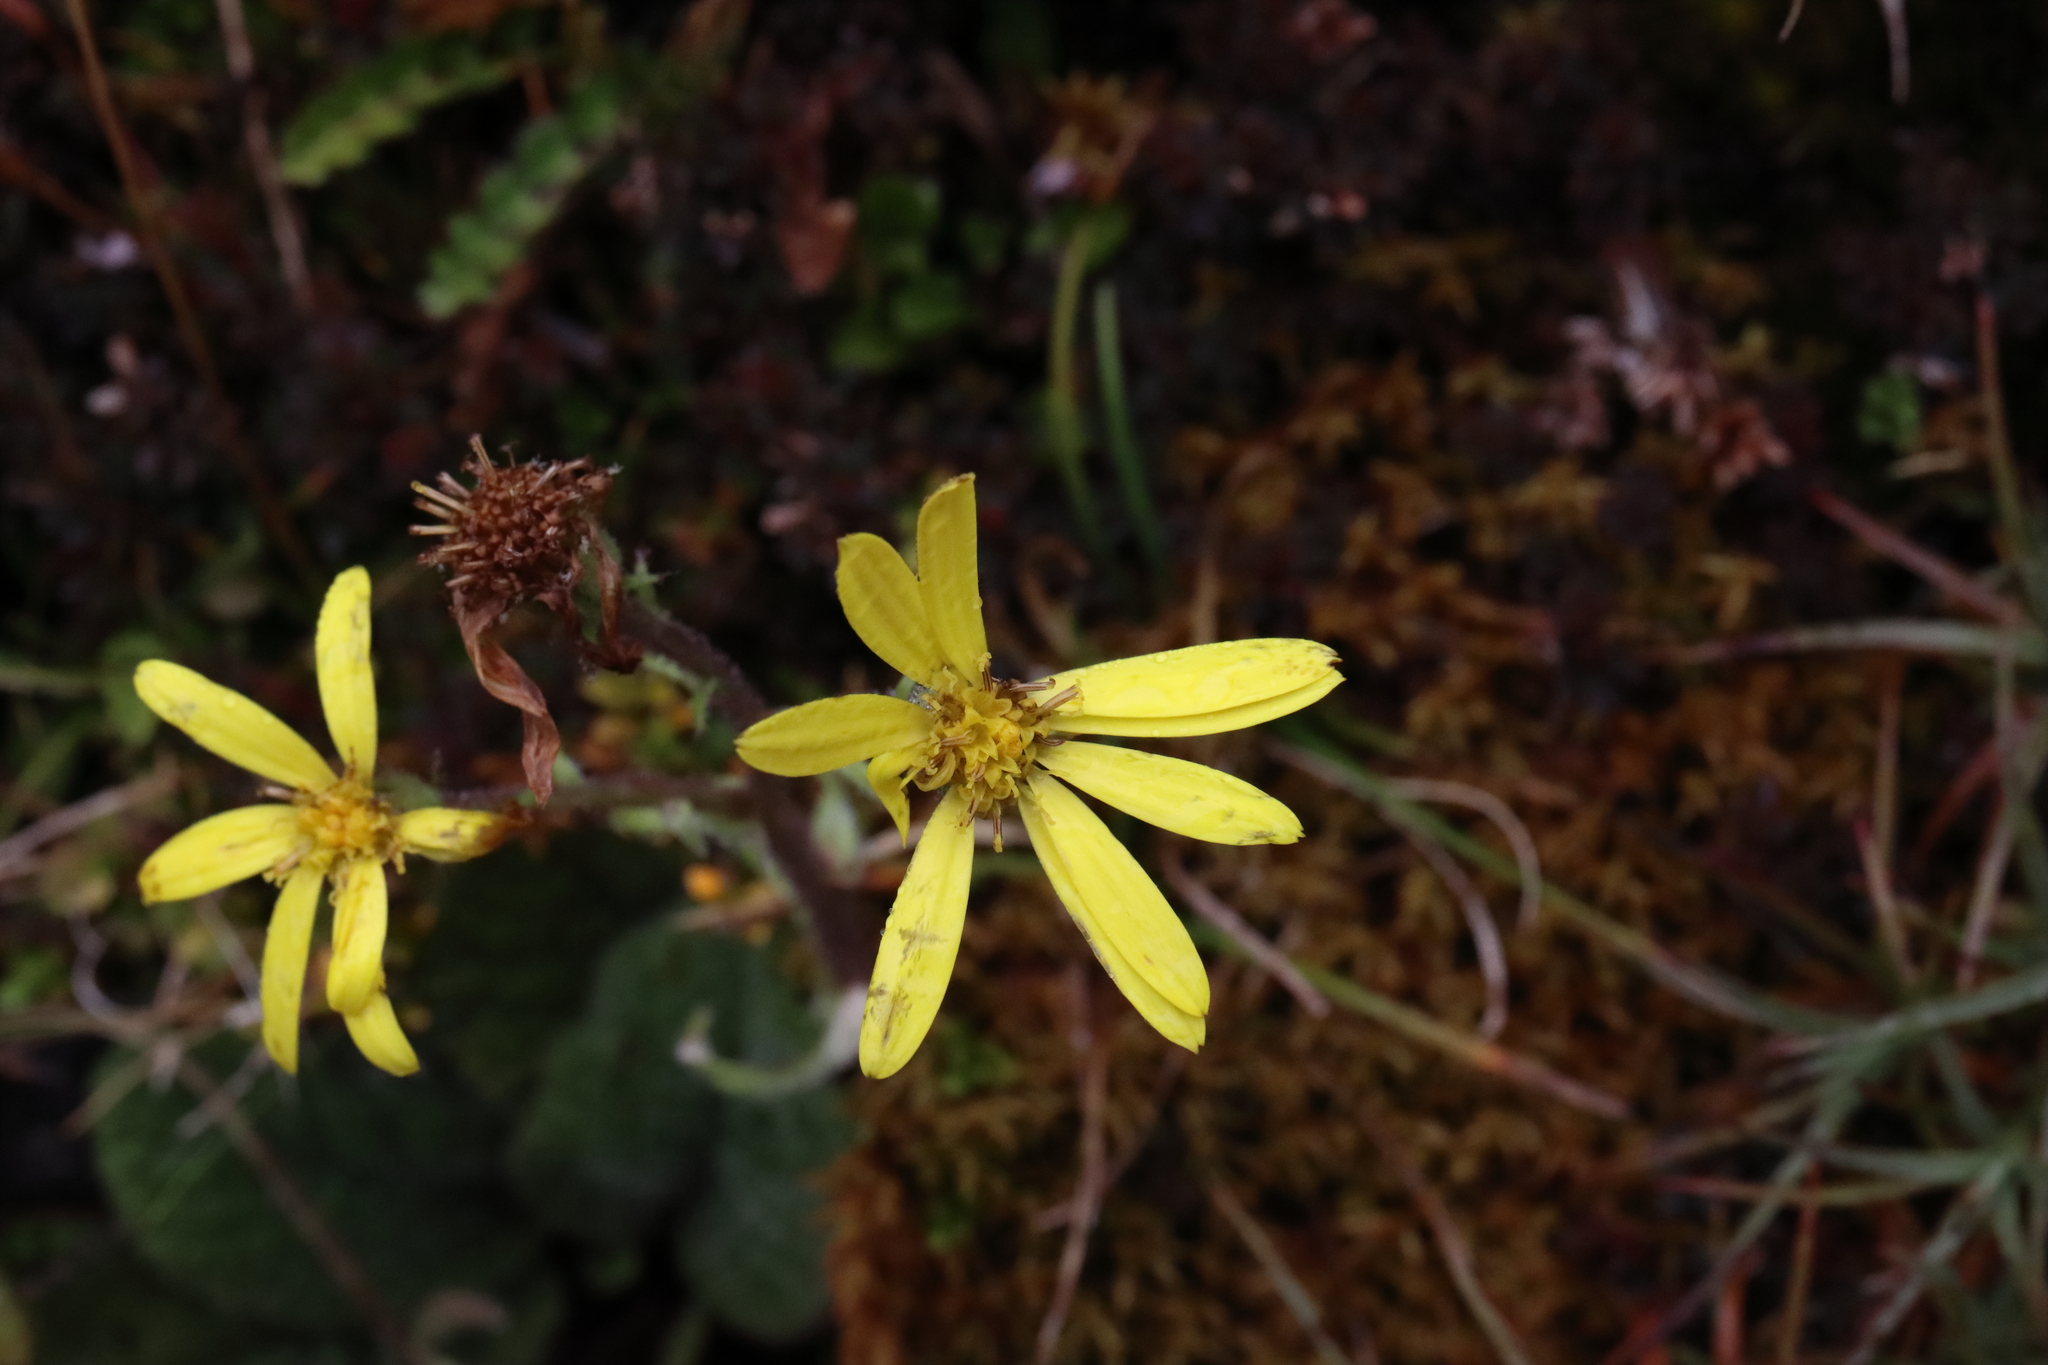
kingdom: Plantae
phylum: Tracheophyta
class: Magnoliopsida
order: Asterales
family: Asteraceae
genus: Brachyglottis
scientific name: Brachyglottis lagopus
